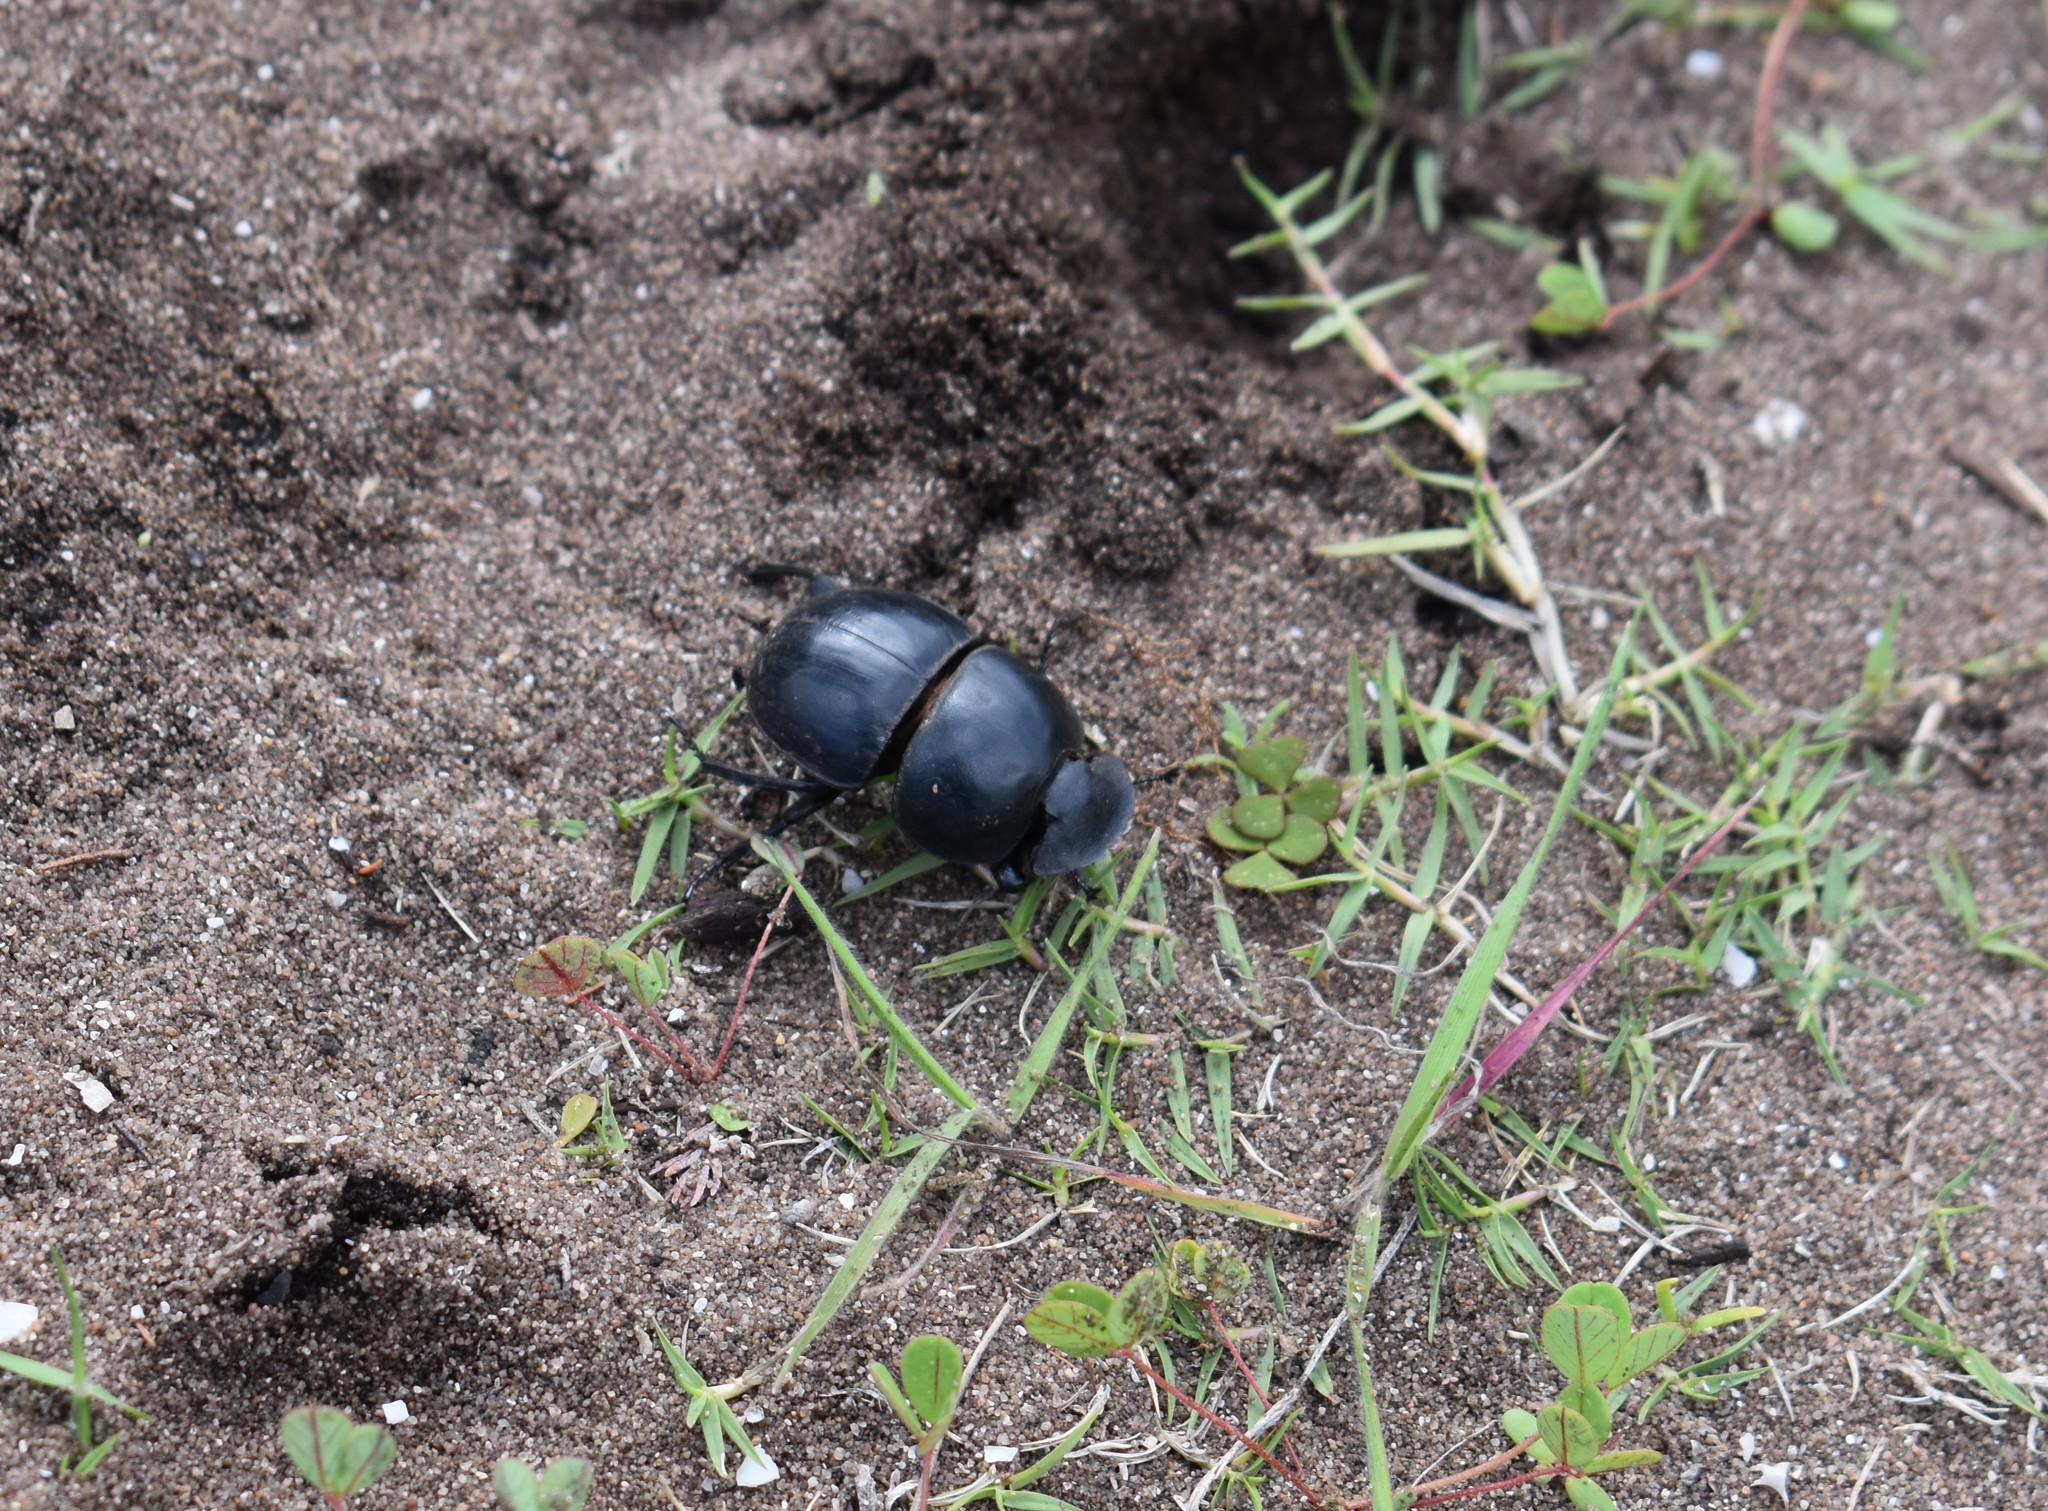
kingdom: Animalia
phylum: Arthropoda
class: Insecta
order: Coleoptera
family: Scarabaeidae
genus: Circellium
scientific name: Circellium bacchus
